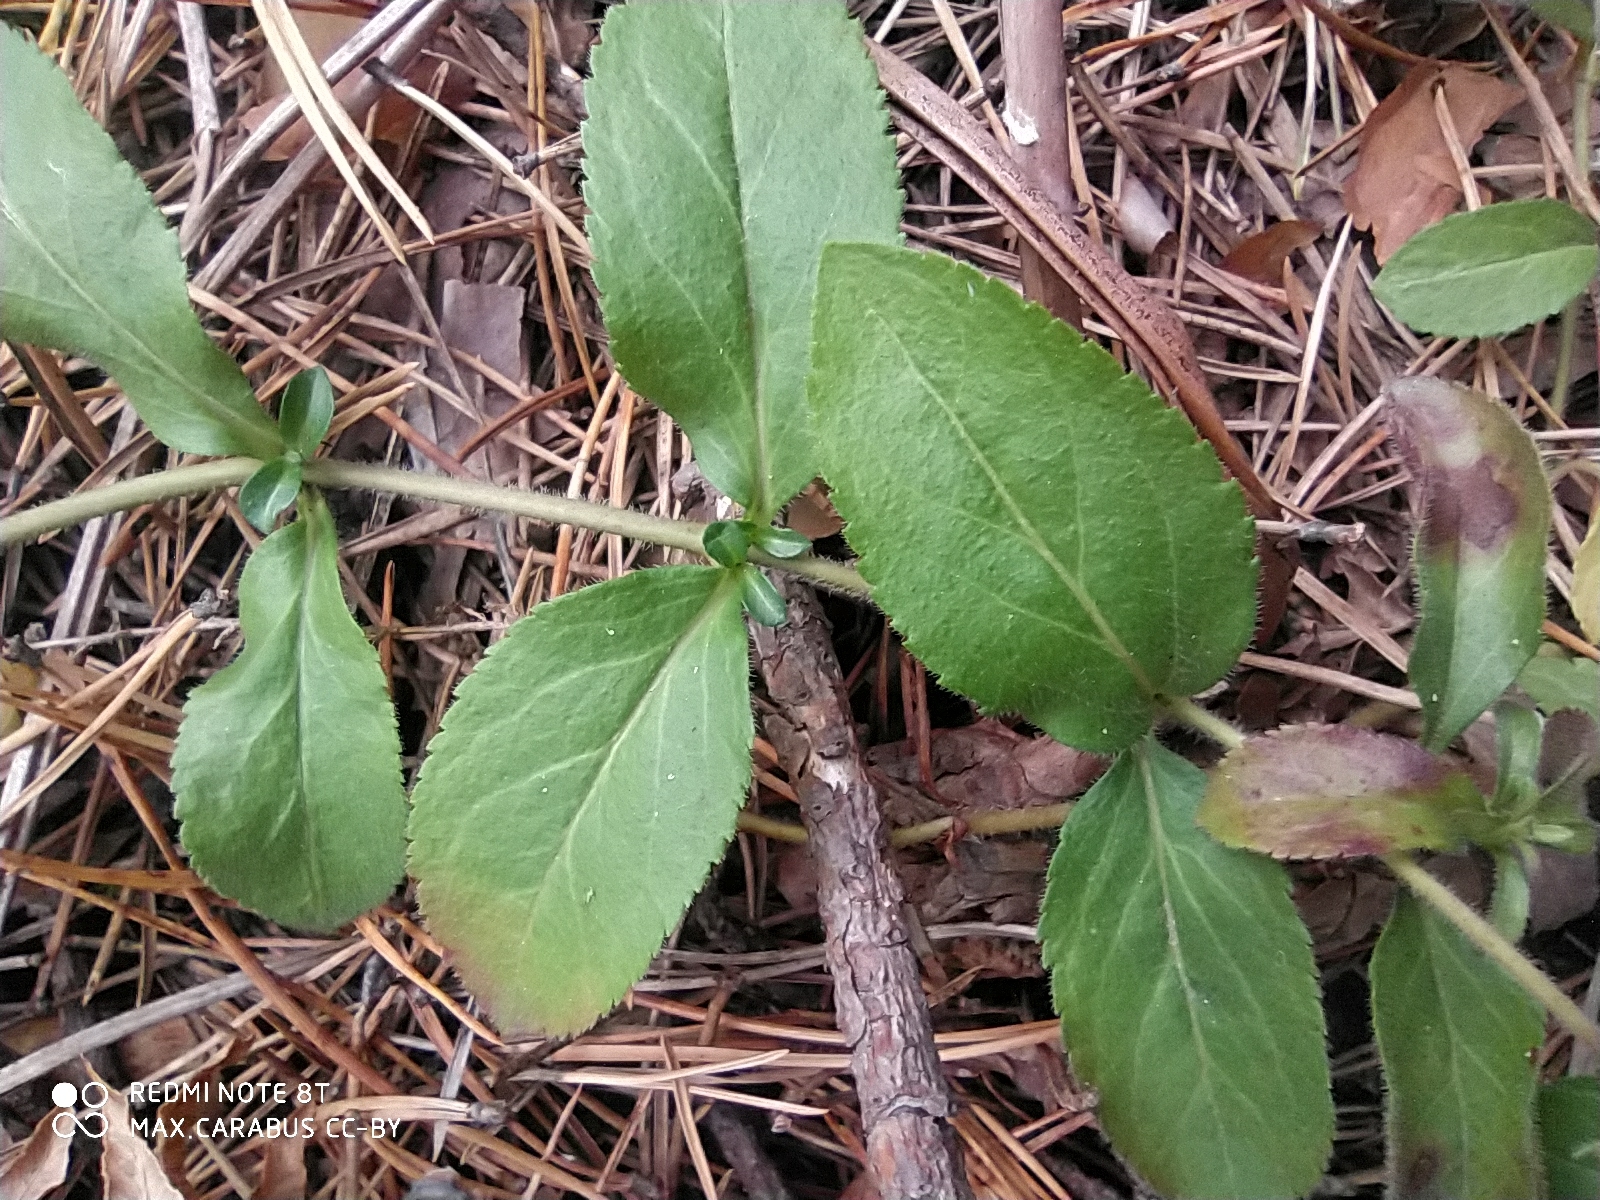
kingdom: Plantae
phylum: Tracheophyta
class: Magnoliopsida
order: Lamiales
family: Plantaginaceae
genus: Veronica
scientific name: Veronica officinalis
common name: Common speedwell
